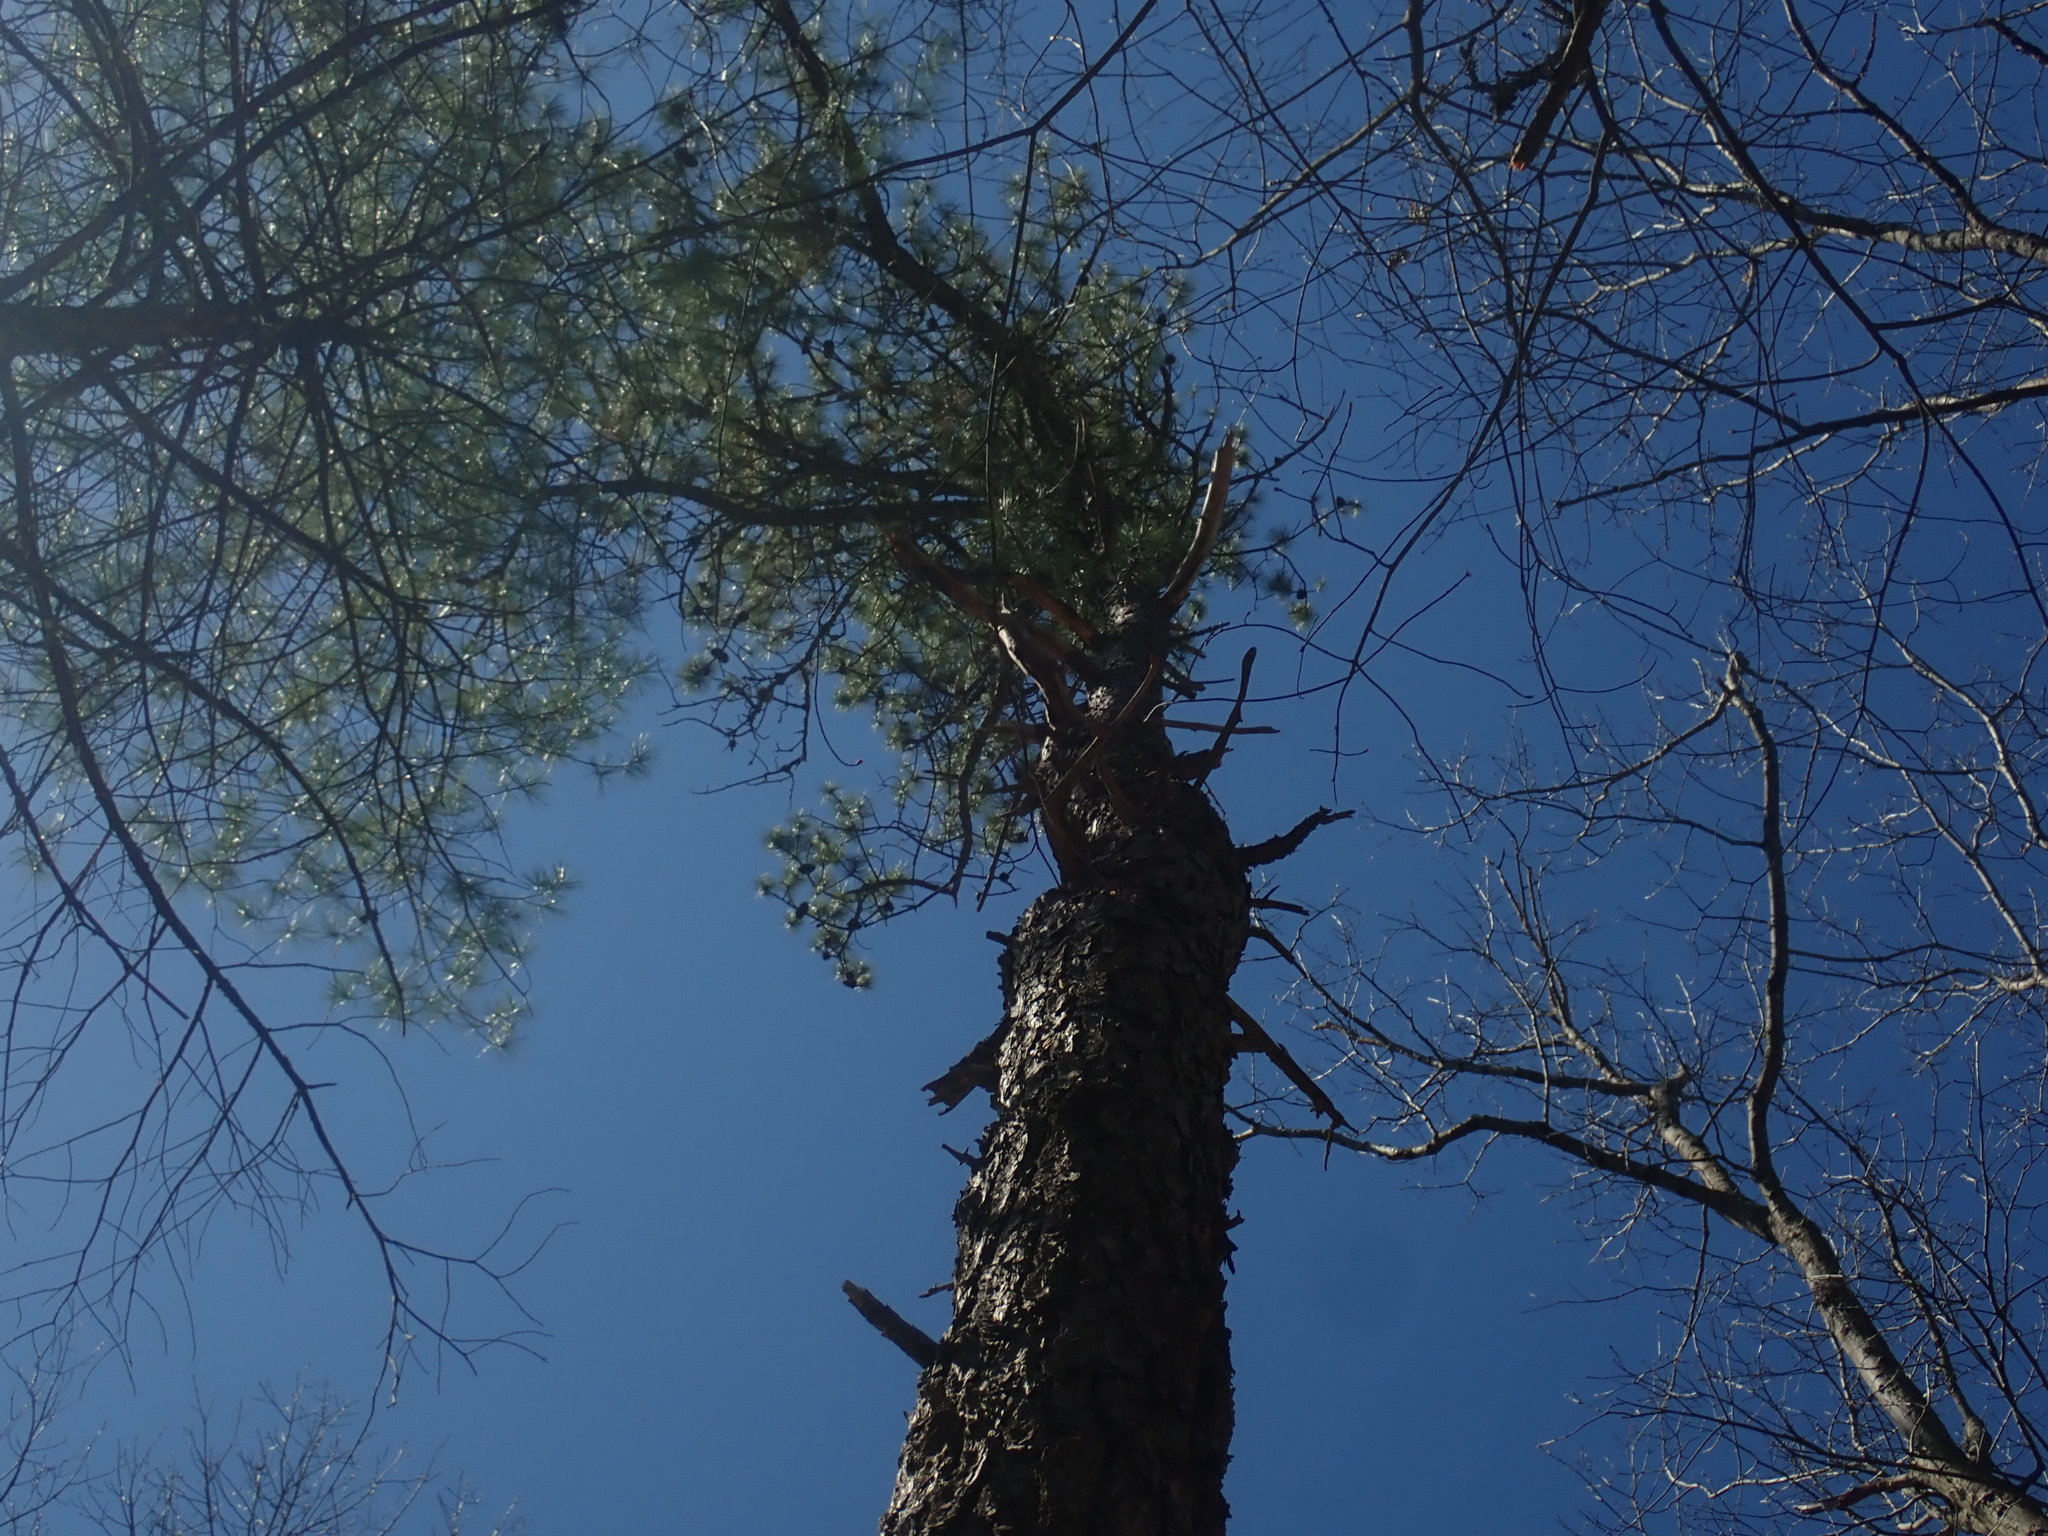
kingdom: Plantae
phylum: Tracheophyta
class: Pinopsida
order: Pinales
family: Pinaceae
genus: Pinus
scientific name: Pinus rigida
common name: Pitch pine
